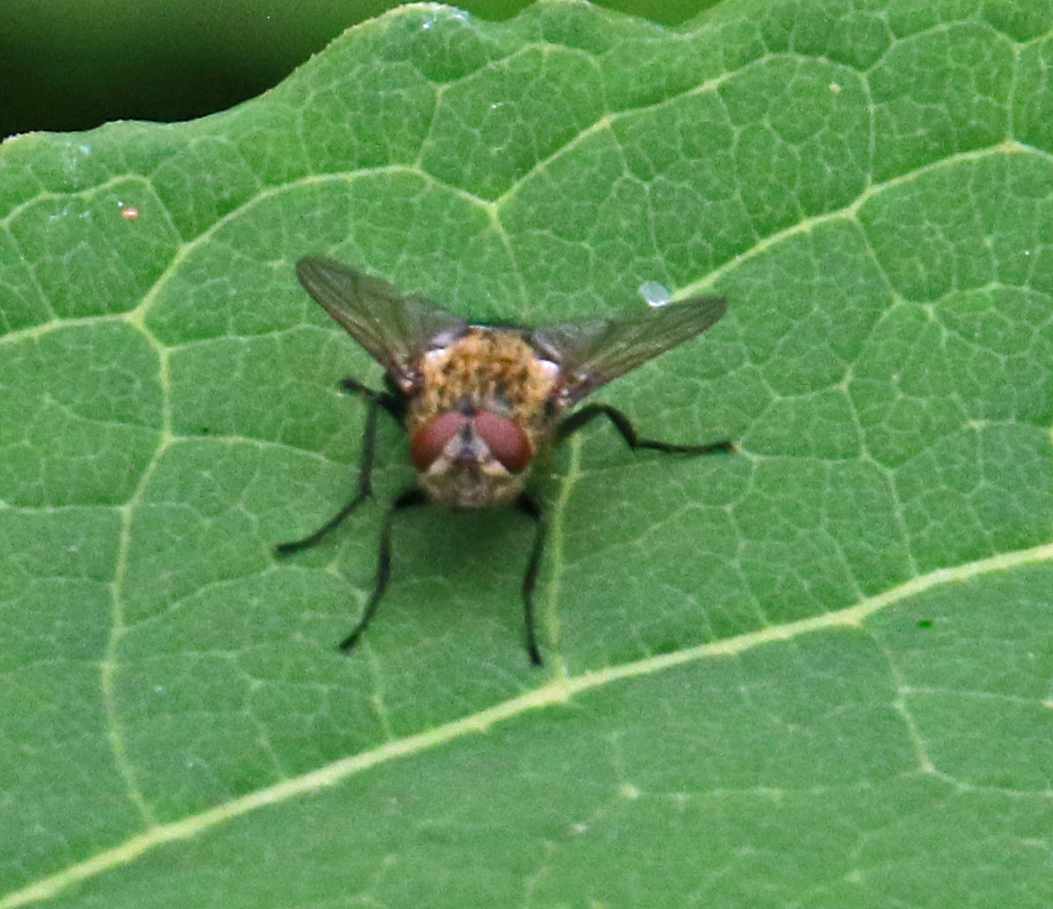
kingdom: Animalia
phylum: Arthropoda
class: Insecta
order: Diptera
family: Polleniidae
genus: Pollenia
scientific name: Pollenia
